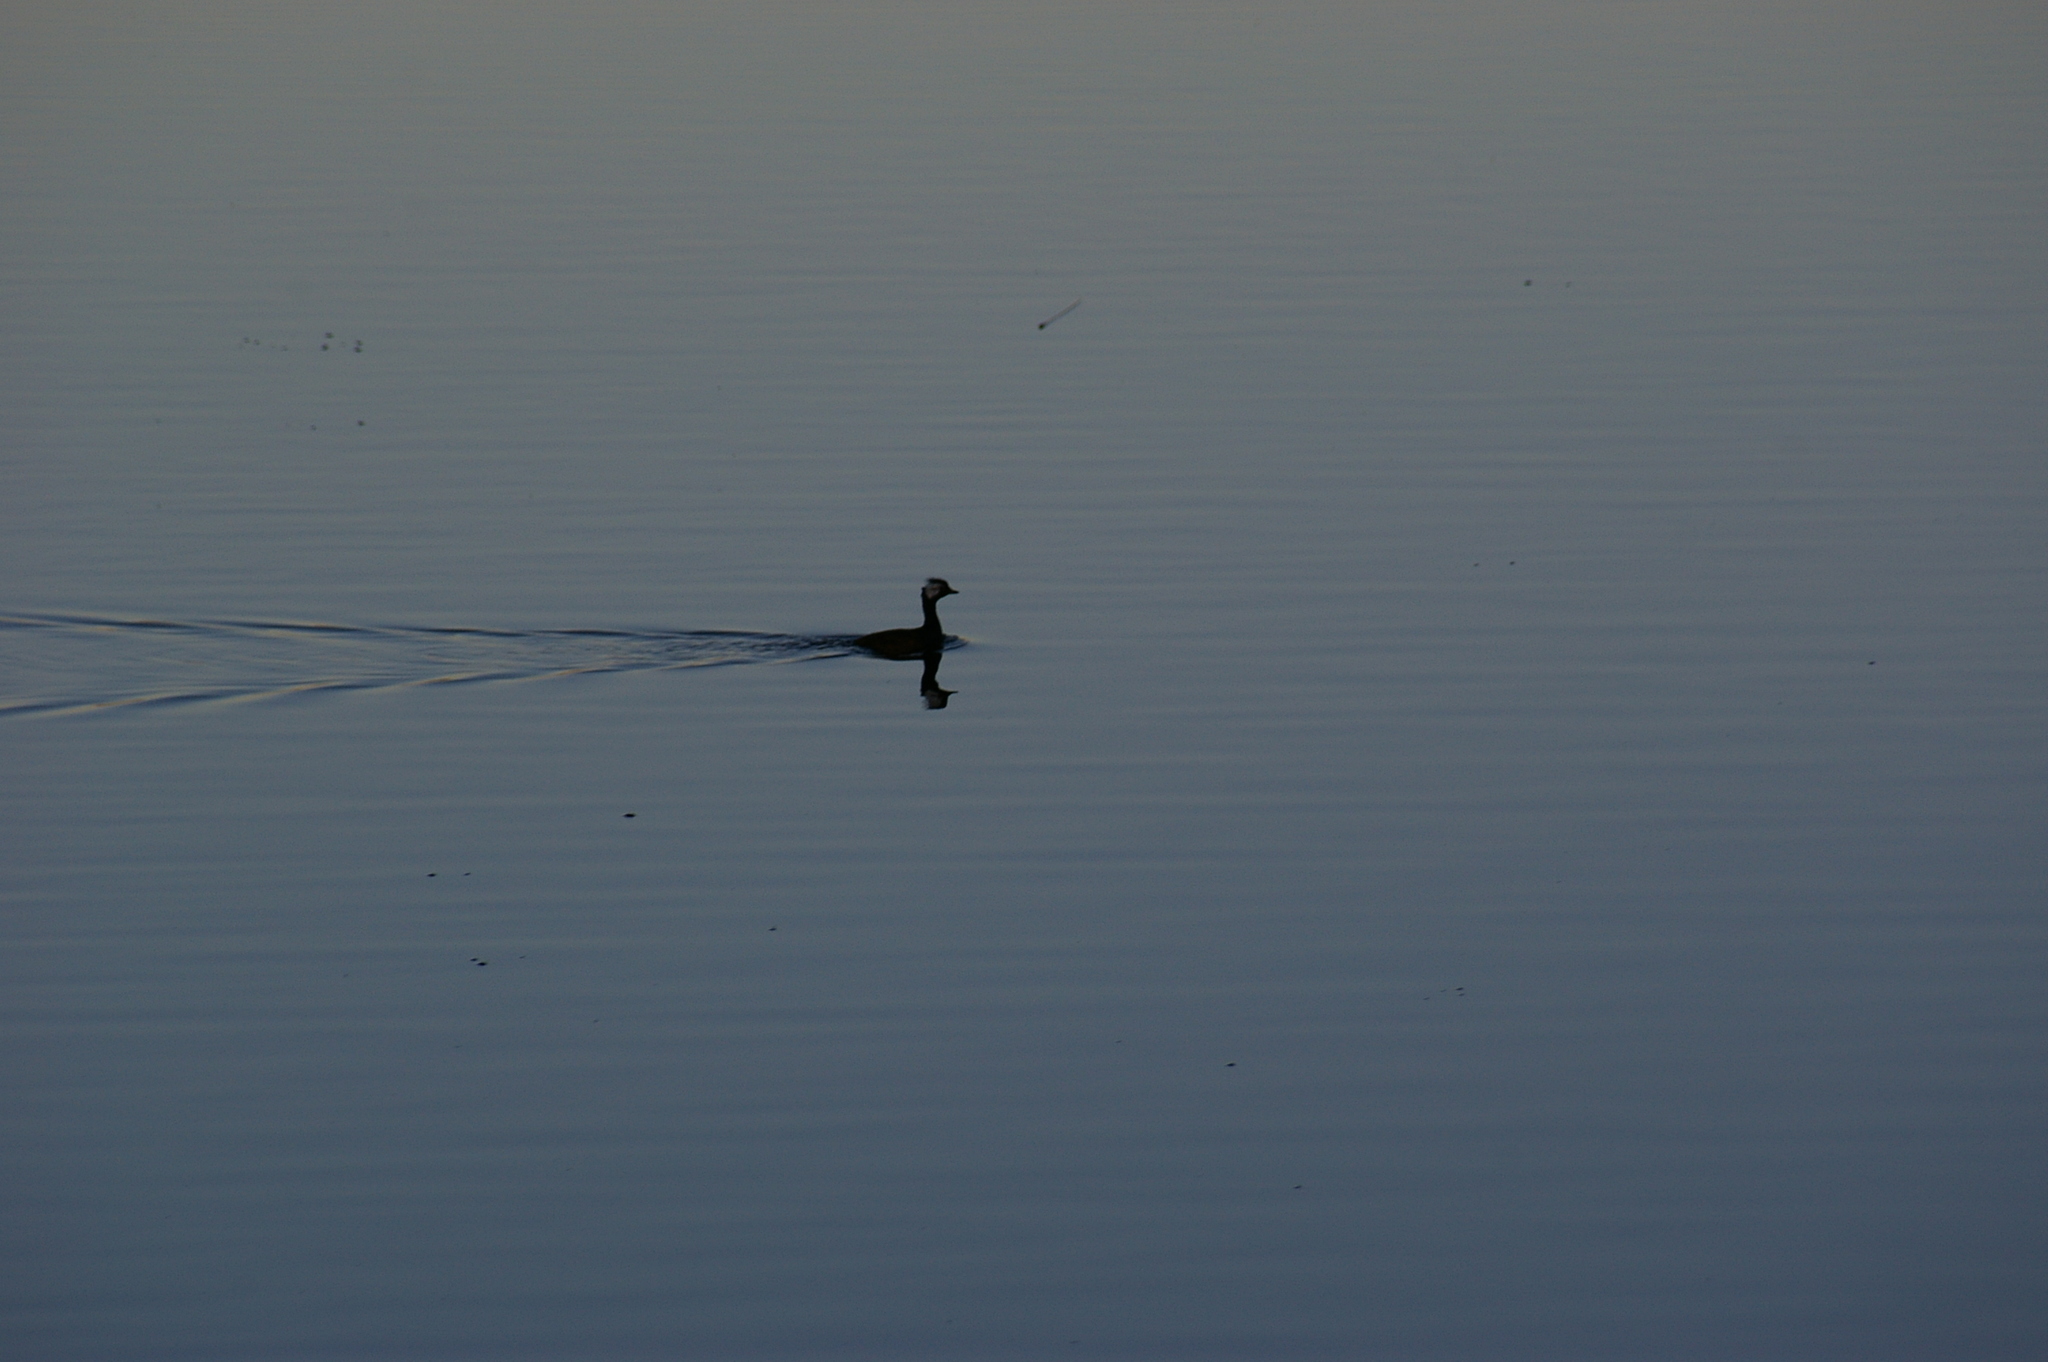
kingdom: Animalia
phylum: Chordata
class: Aves
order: Podicipediformes
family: Podicipedidae
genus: Rollandia
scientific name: Rollandia rolland
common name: White-tufted grebe
